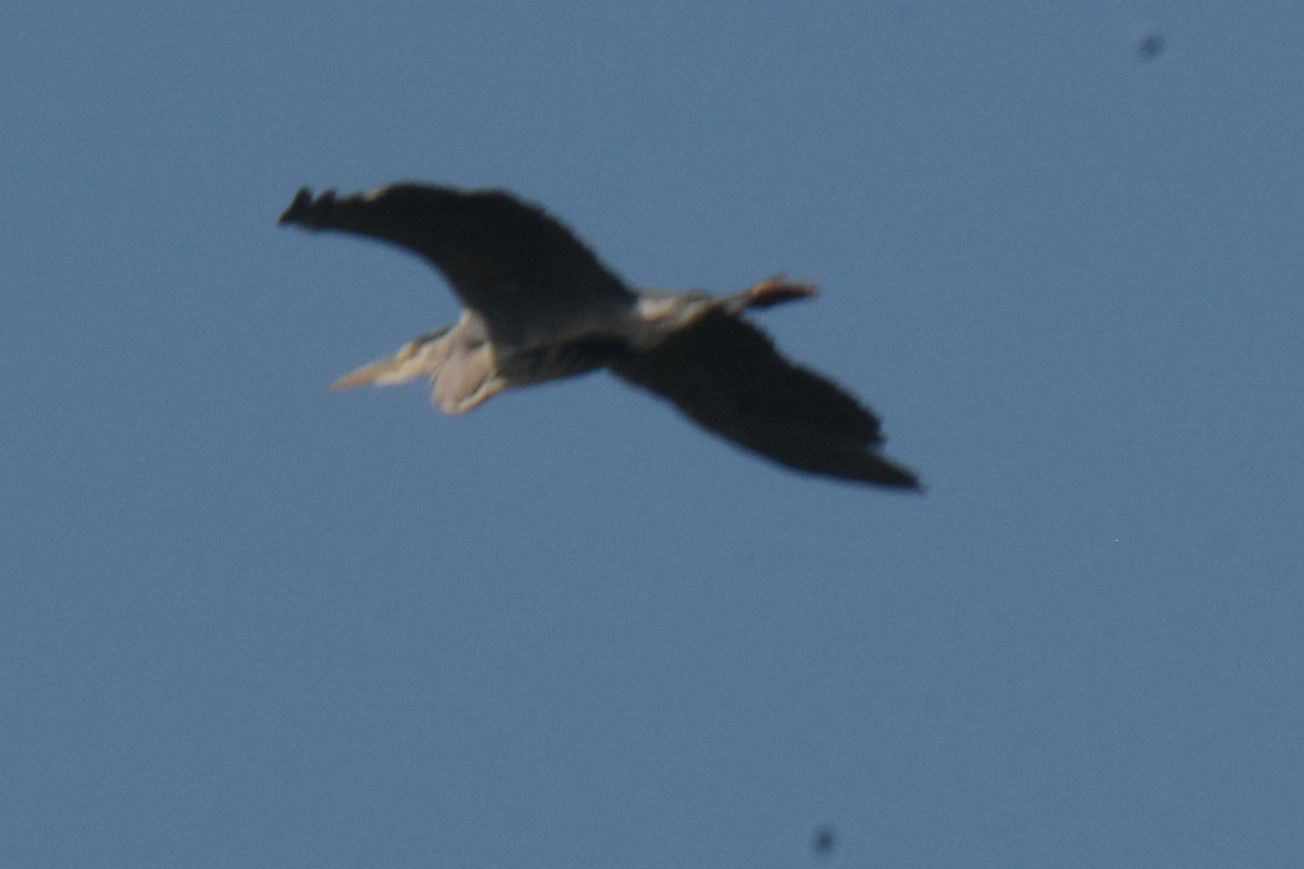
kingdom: Animalia
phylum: Chordata
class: Aves
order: Pelecaniformes
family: Ardeidae
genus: Ardea
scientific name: Ardea cinerea
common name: Grey heron
